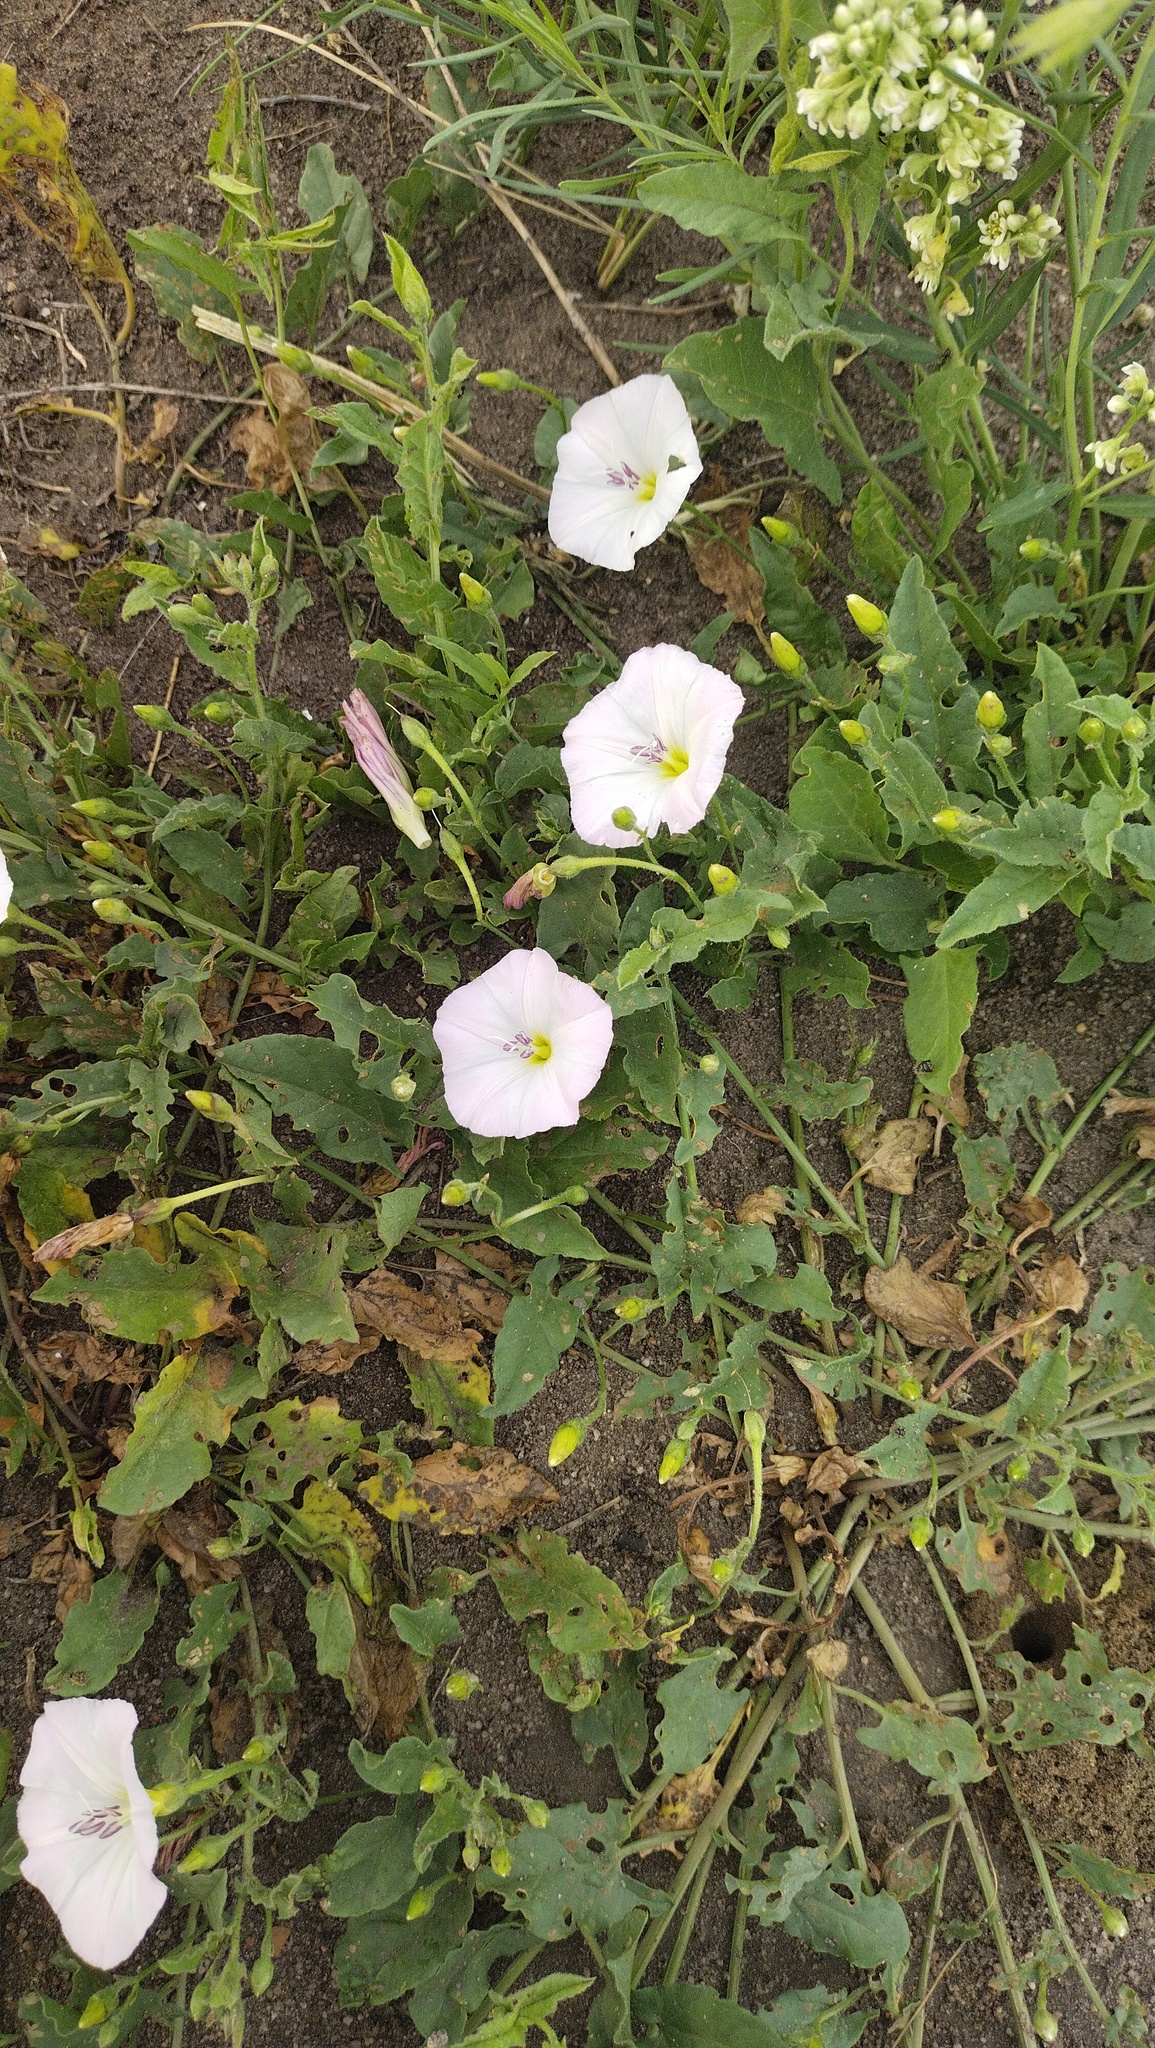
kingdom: Plantae
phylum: Tracheophyta
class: Magnoliopsida
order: Solanales
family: Convolvulaceae
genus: Convolvulus
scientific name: Convolvulus arvensis
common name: Field bindweed
